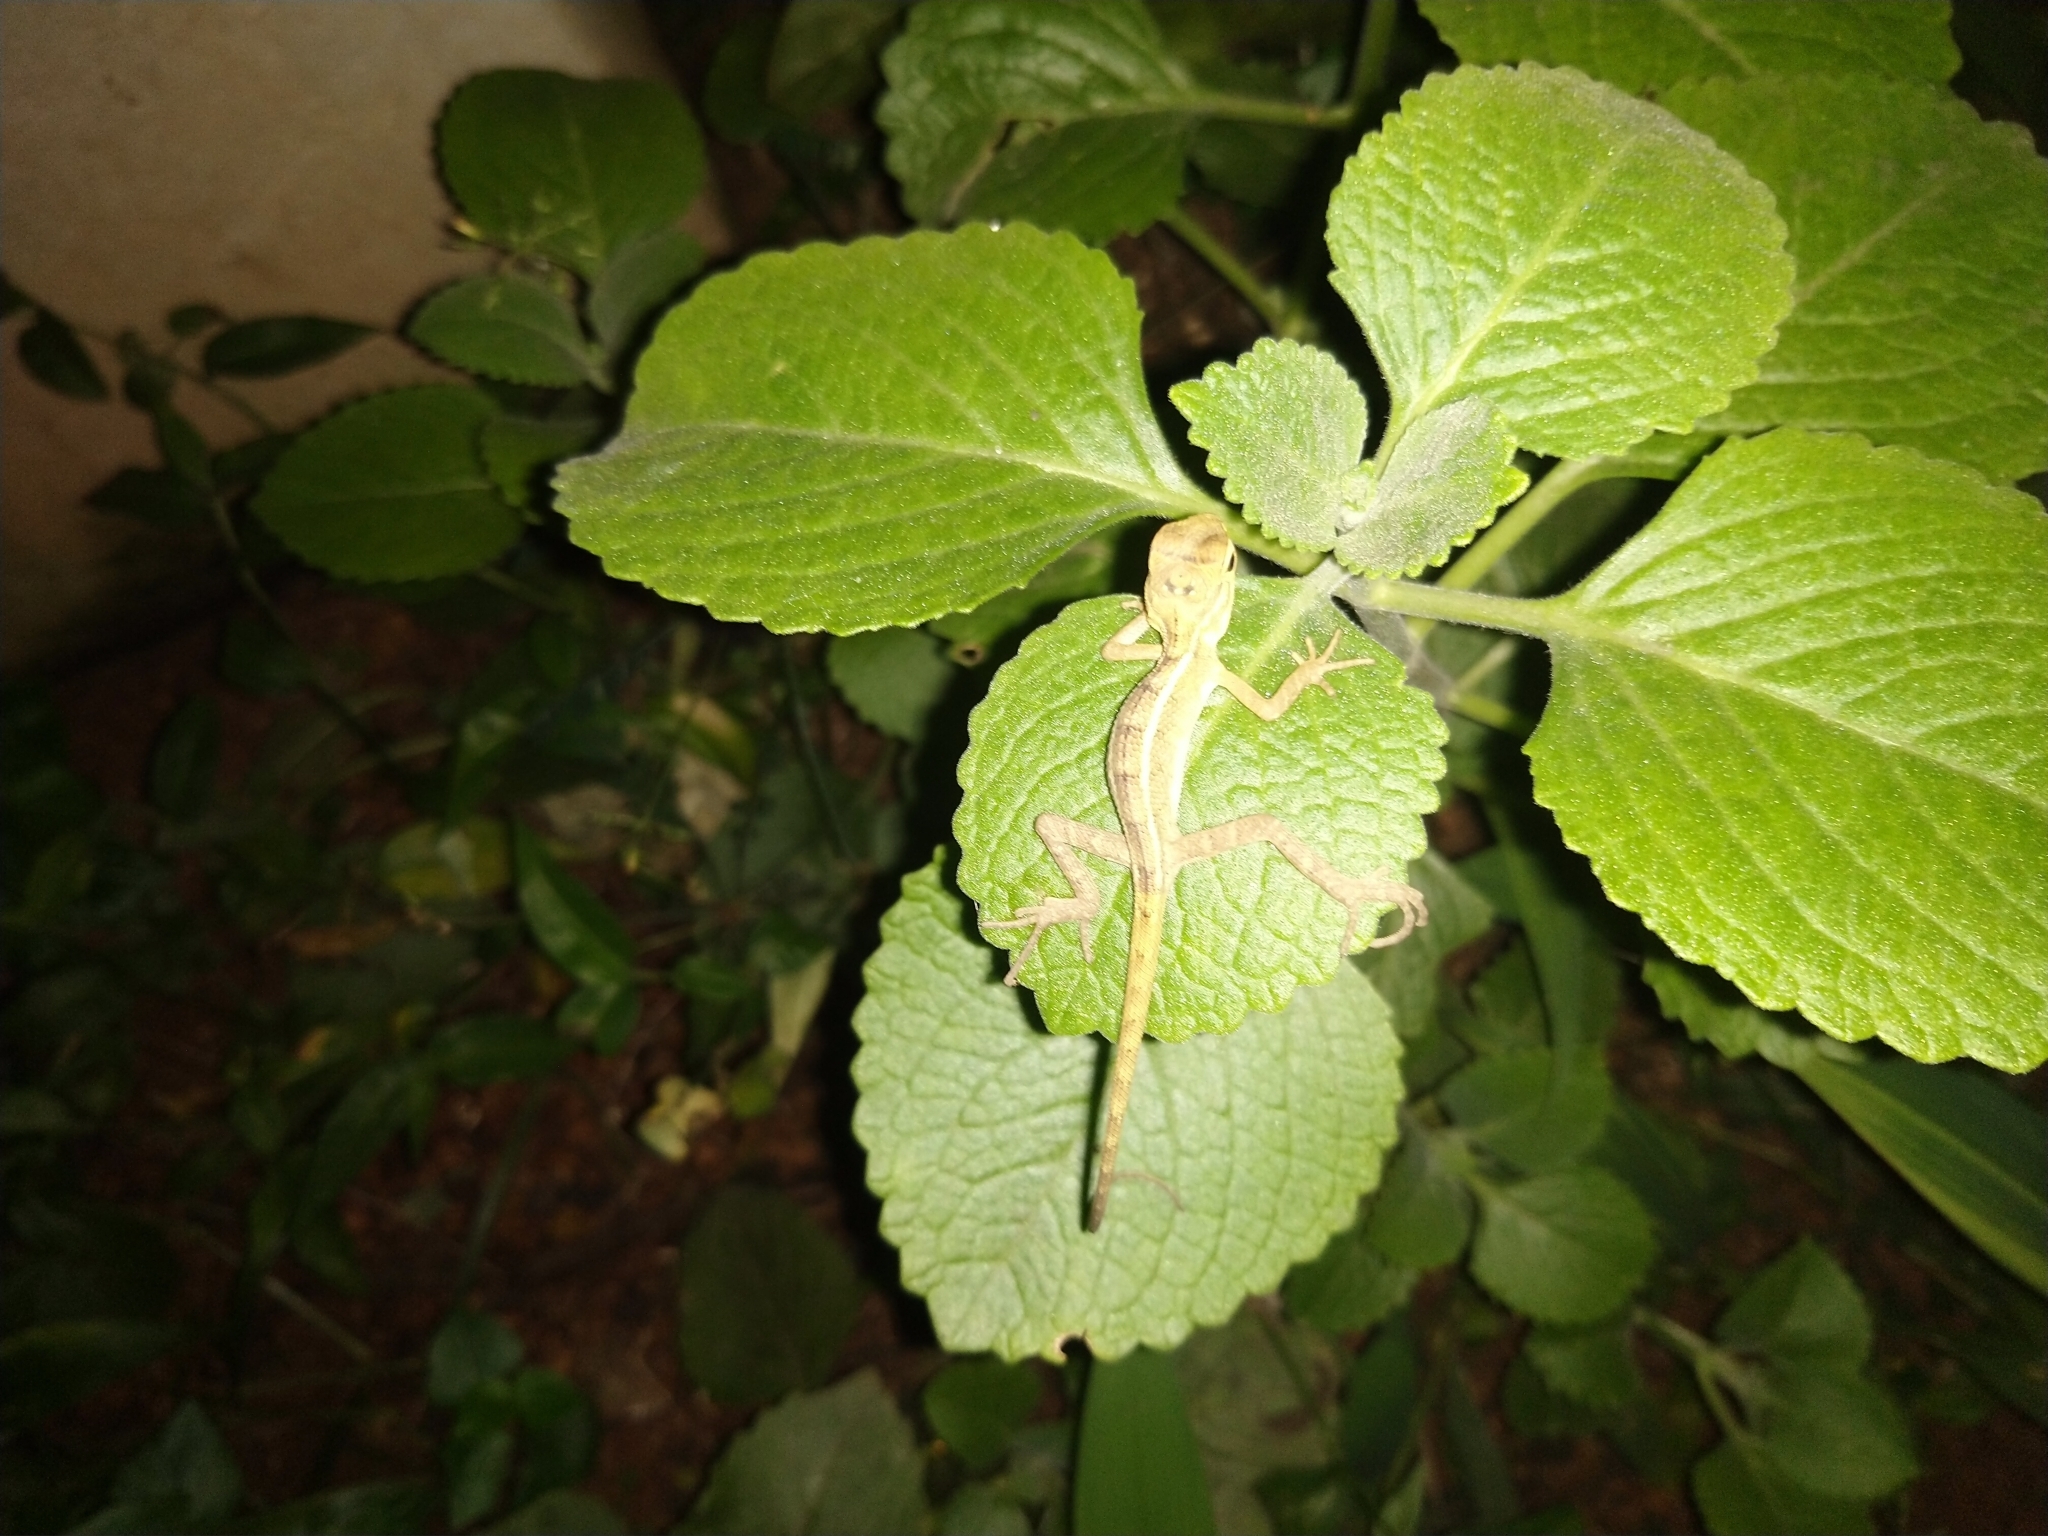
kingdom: Animalia
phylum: Chordata
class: Squamata
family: Agamidae
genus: Calotes
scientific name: Calotes versicolor
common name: Oriental garden lizard
